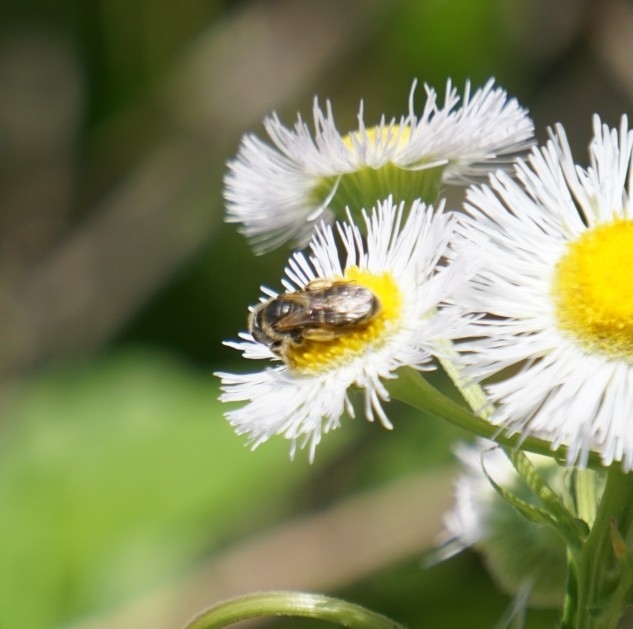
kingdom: Animalia
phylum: Arthropoda
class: Insecta
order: Hymenoptera
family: Halictidae
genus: Halictus
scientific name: Halictus ligatus
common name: Ligated furrow bee
